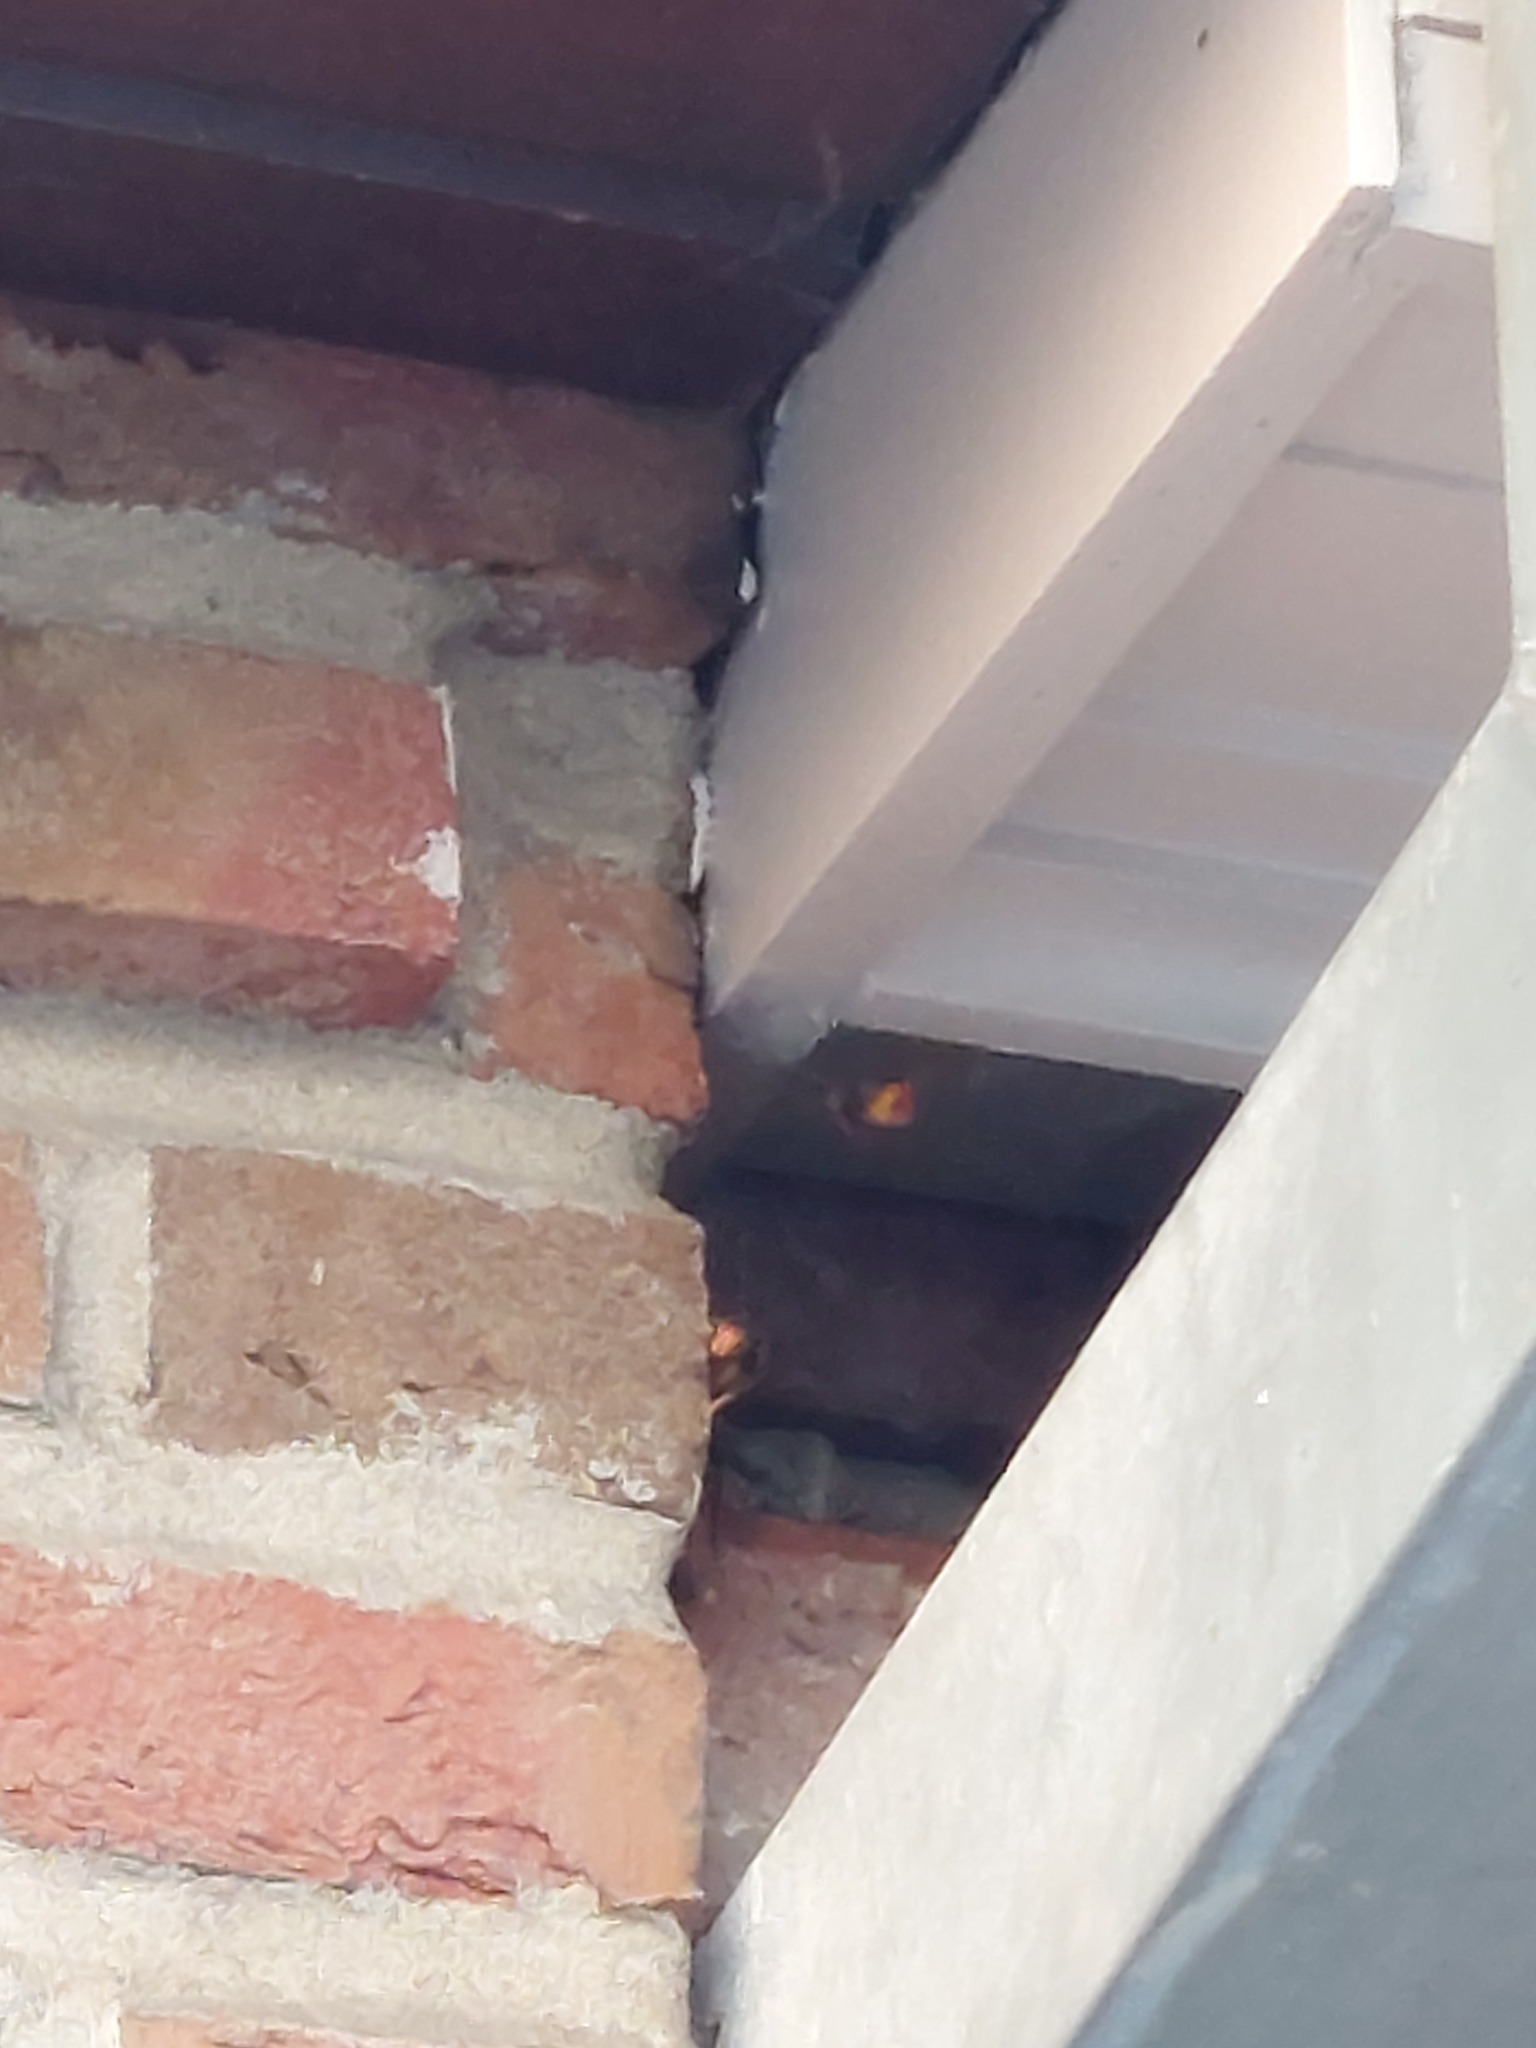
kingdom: Animalia
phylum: Arthropoda
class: Insecta
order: Hymenoptera
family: Vespidae
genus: Vespa
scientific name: Vespa velutina
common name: Asian hornet
